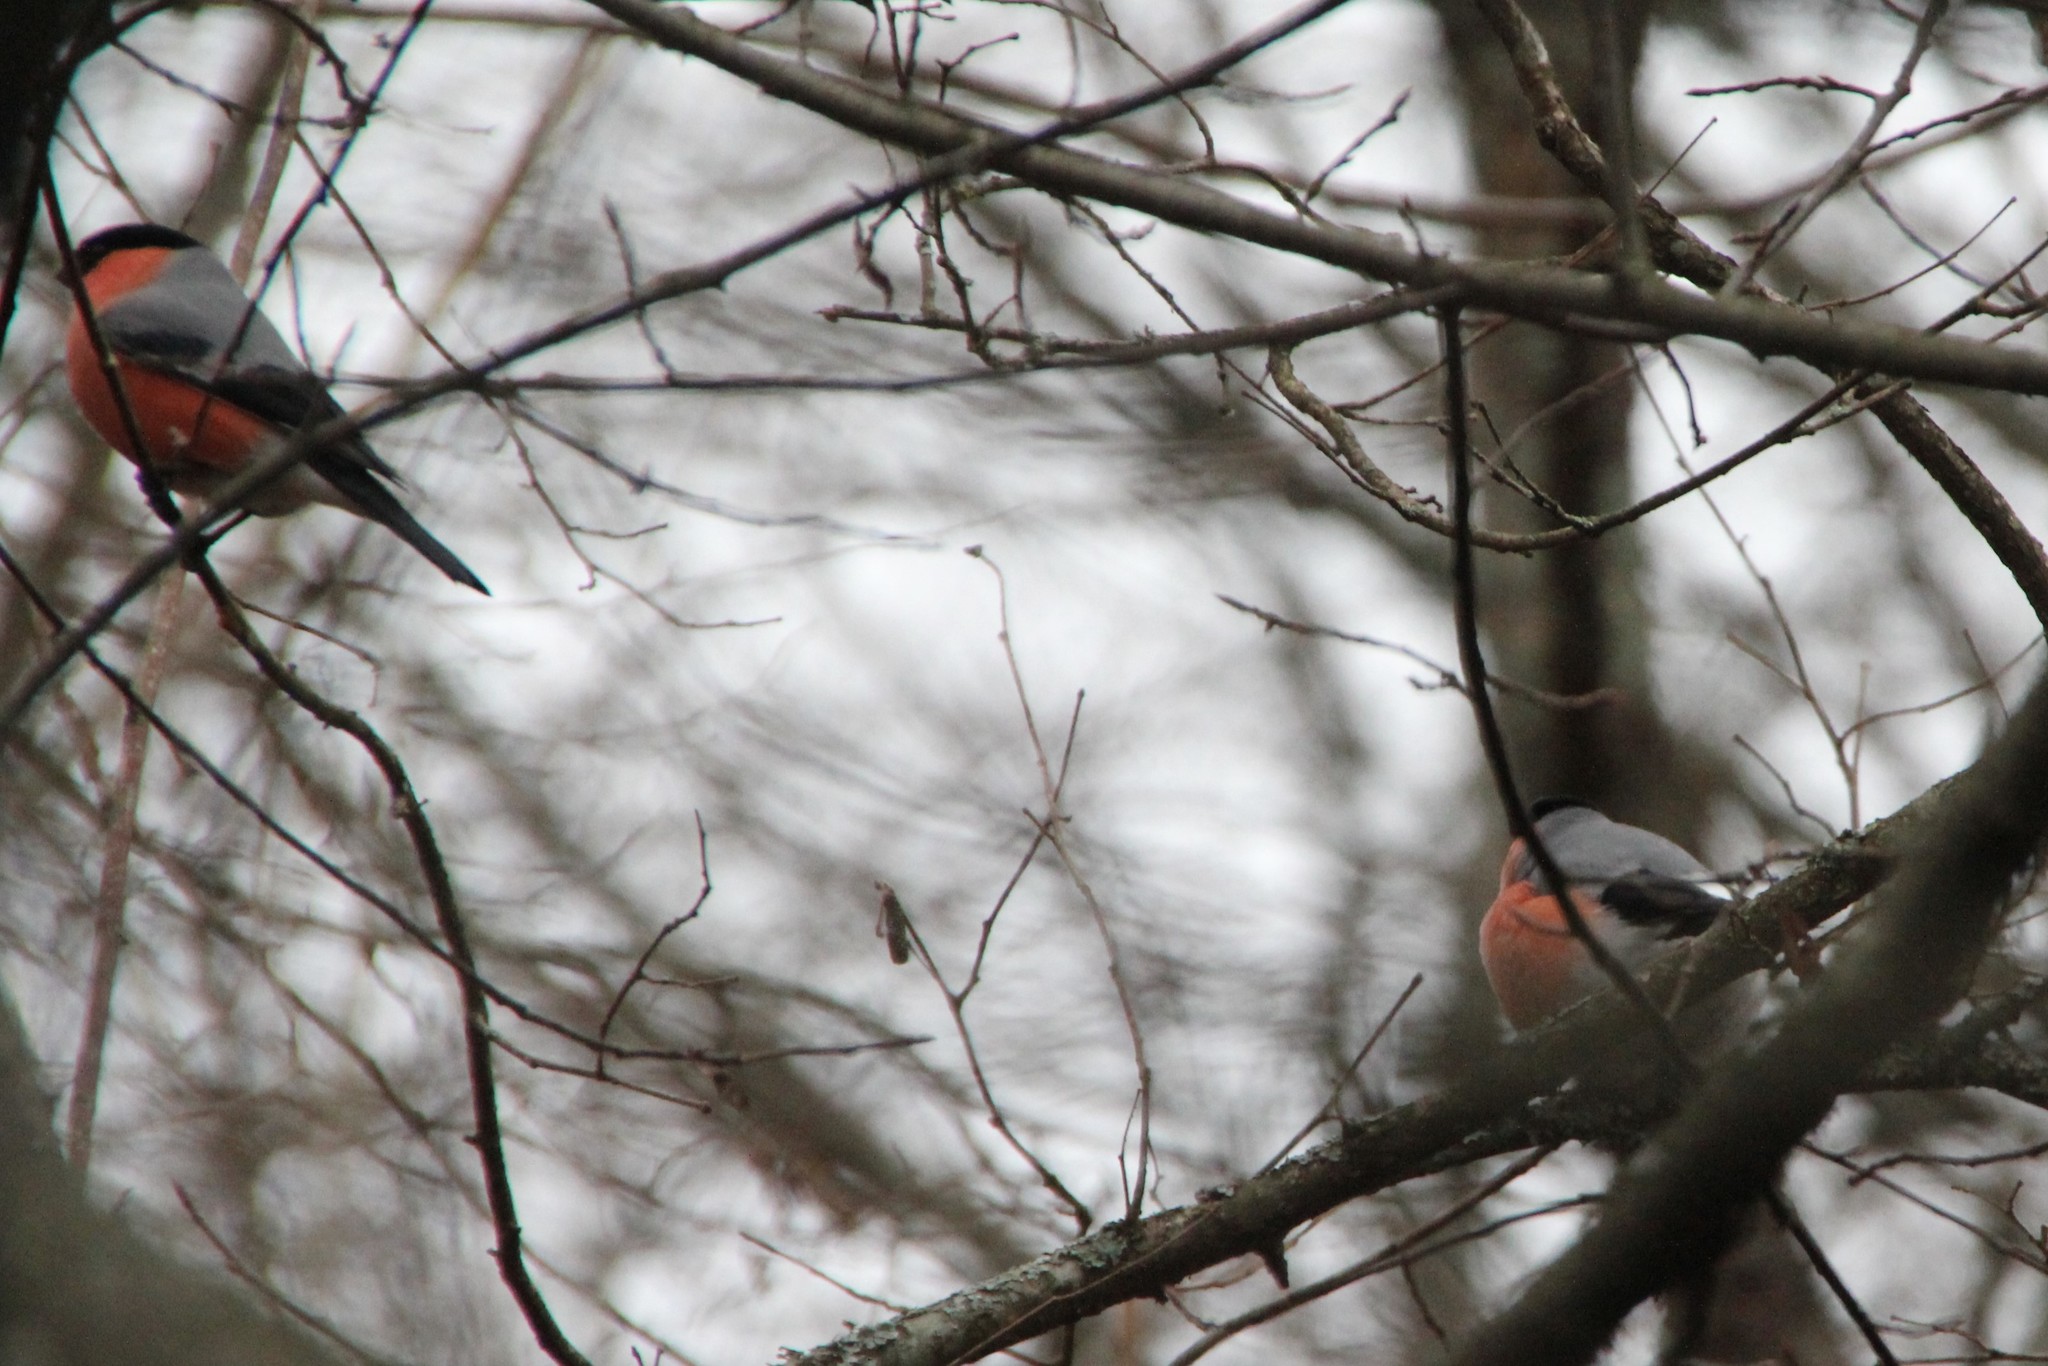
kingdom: Animalia
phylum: Chordata
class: Aves
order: Passeriformes
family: Fringillidae
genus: Pyrrhula
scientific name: Pyrrhula pyrrhula
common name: Eurasian bullfinch
